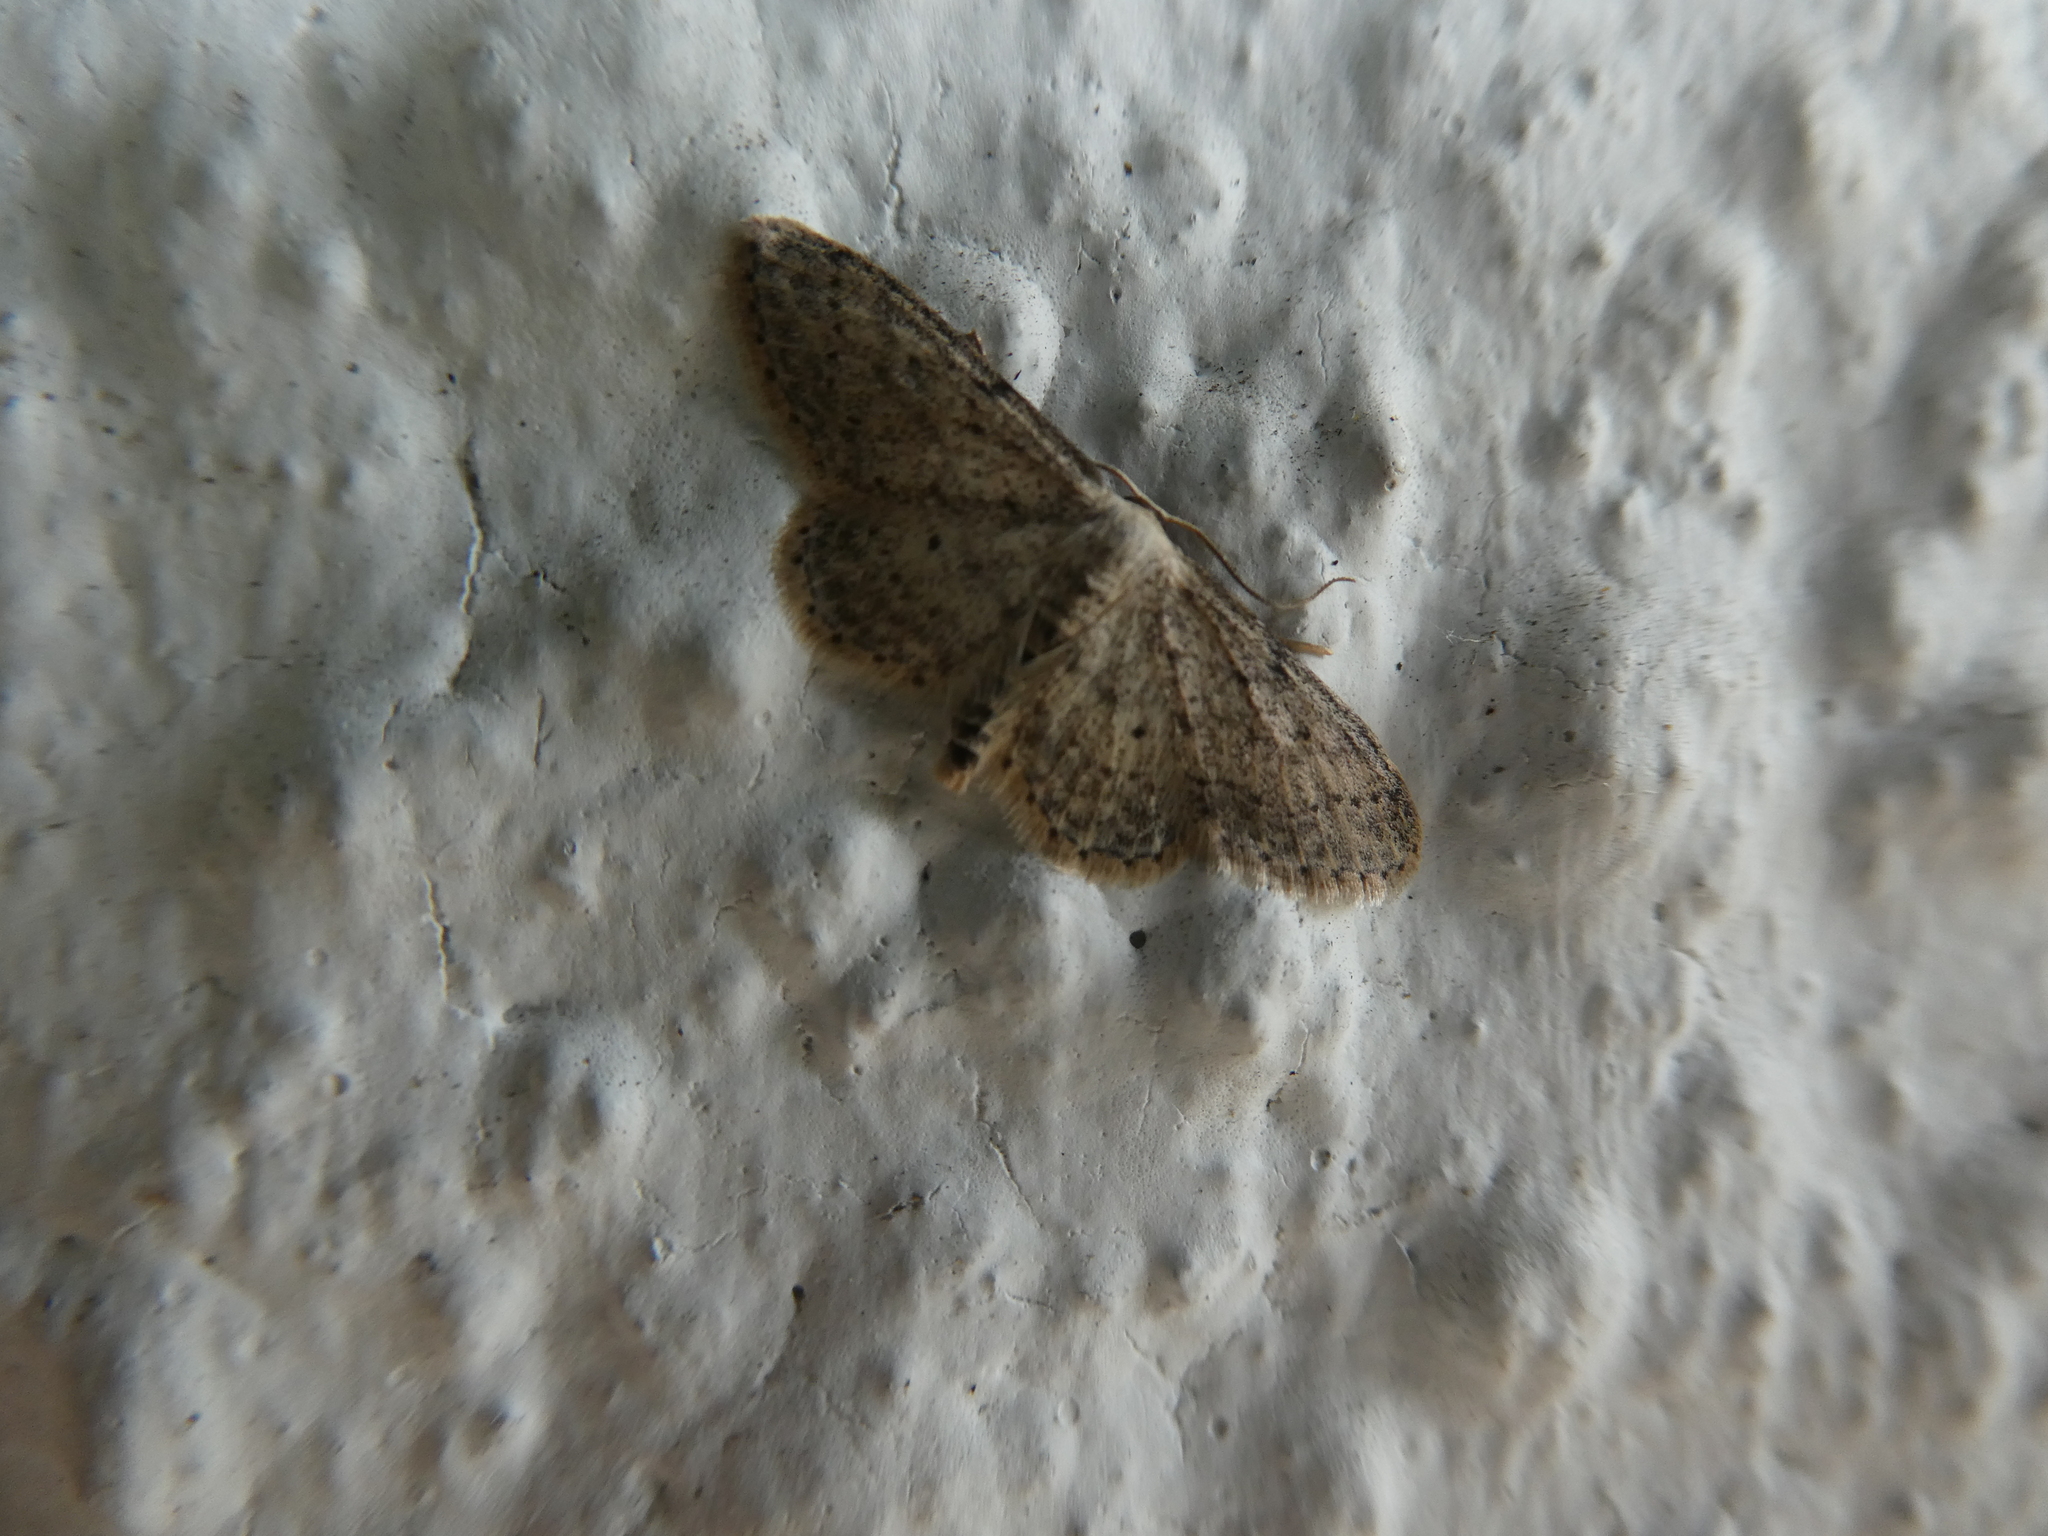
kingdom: Animalia
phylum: Arthropoda
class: Insecta
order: Lepidoptera
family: Geometridae
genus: Idaea
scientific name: Idaea seriata
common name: Small dusty wave
